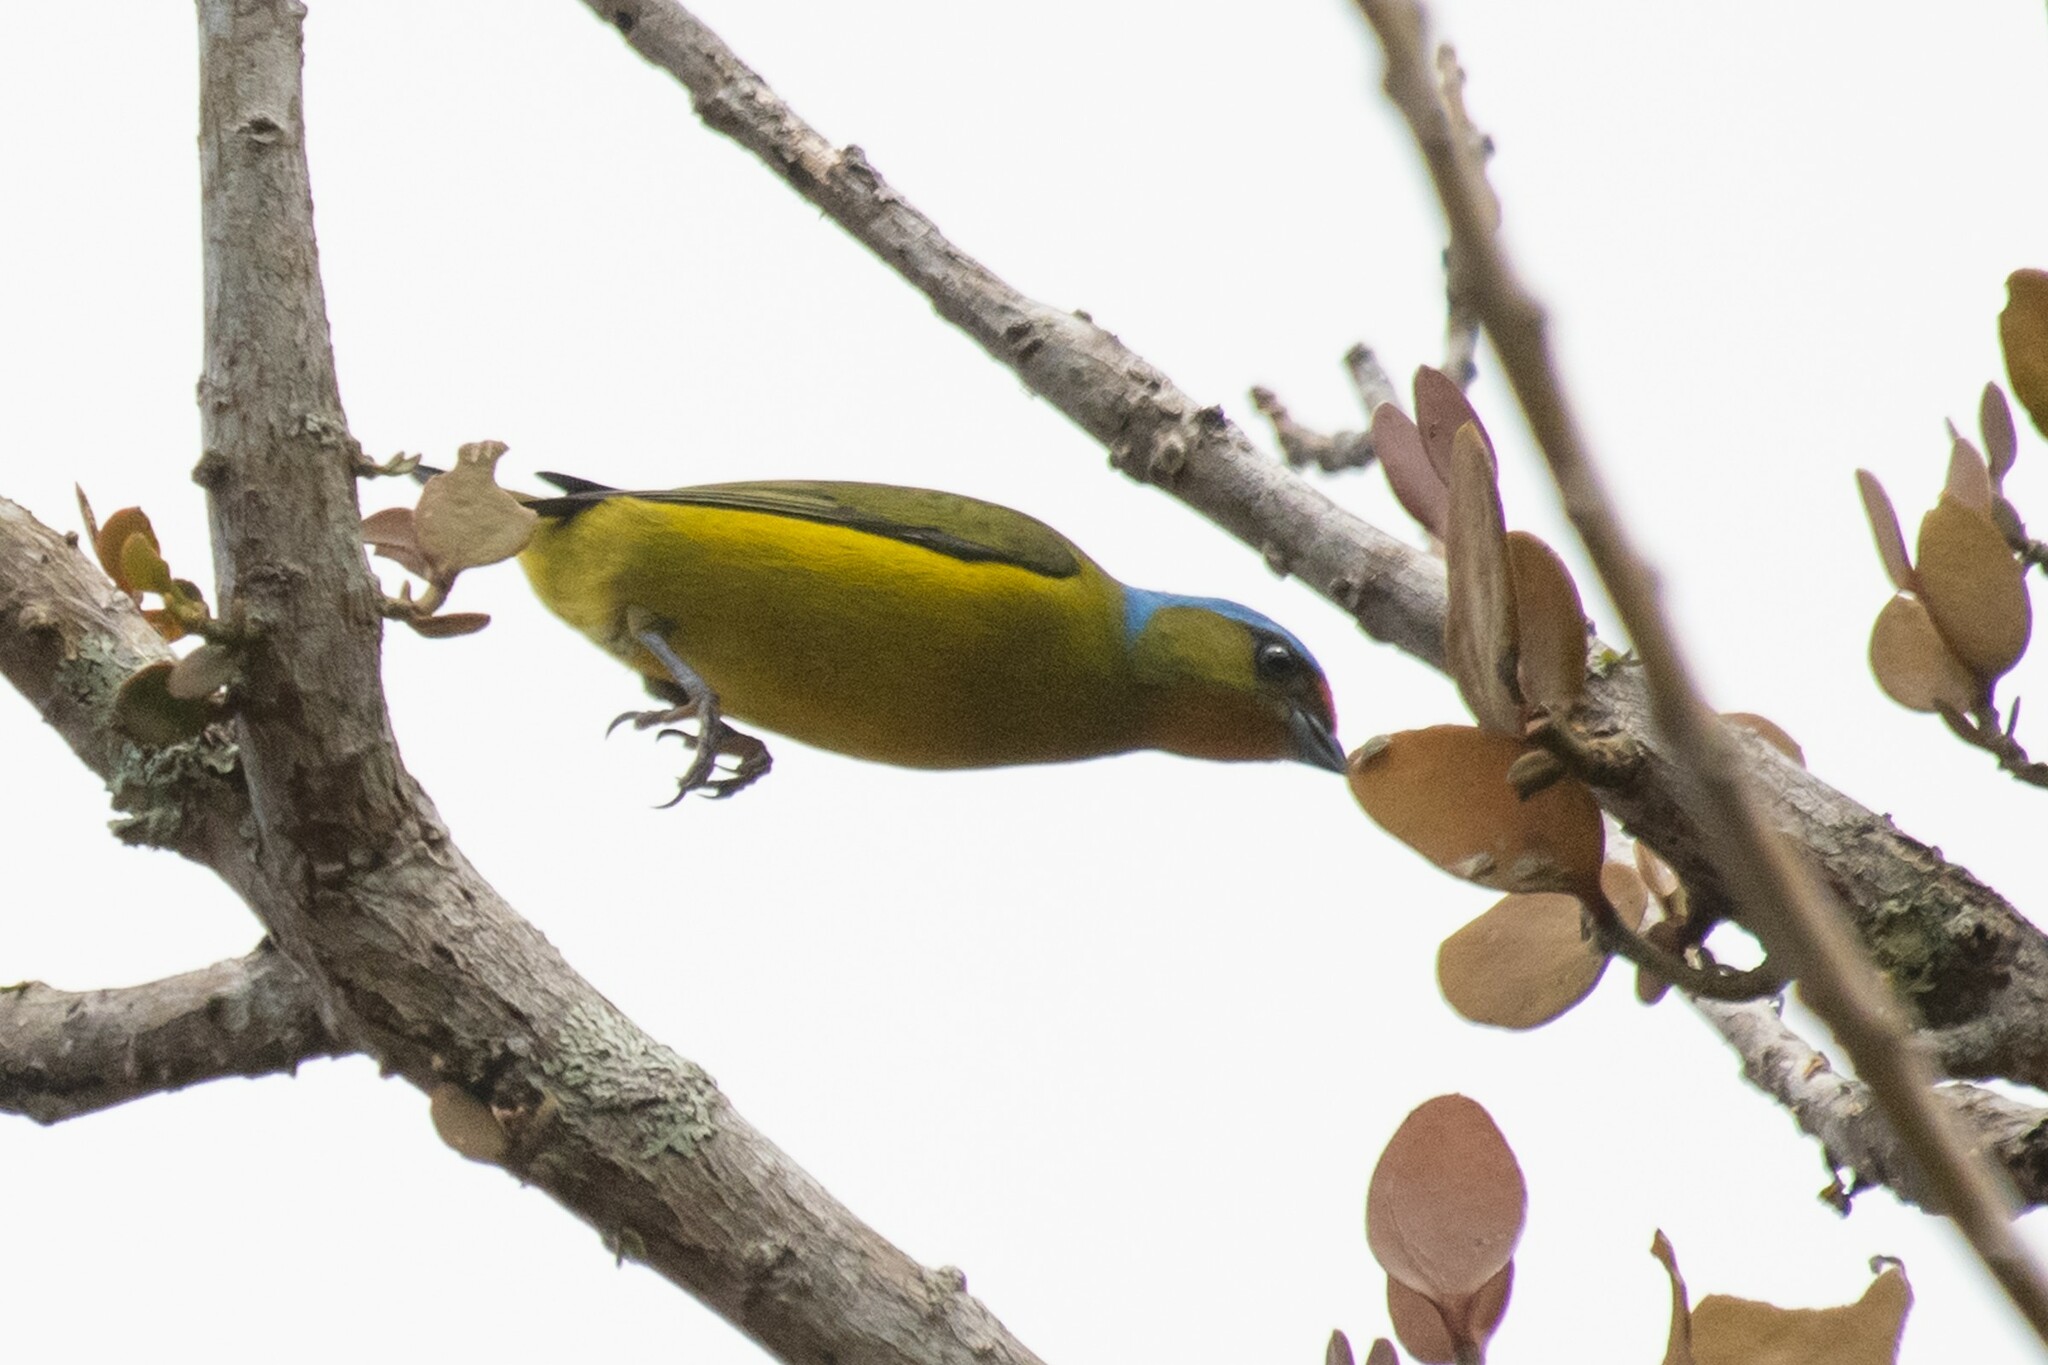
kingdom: Animalia
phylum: Chordata
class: Aves
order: Passeriformes
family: Fringillidae
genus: Euphonia
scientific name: Euphonia elegantissima
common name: Elegant euphonia
